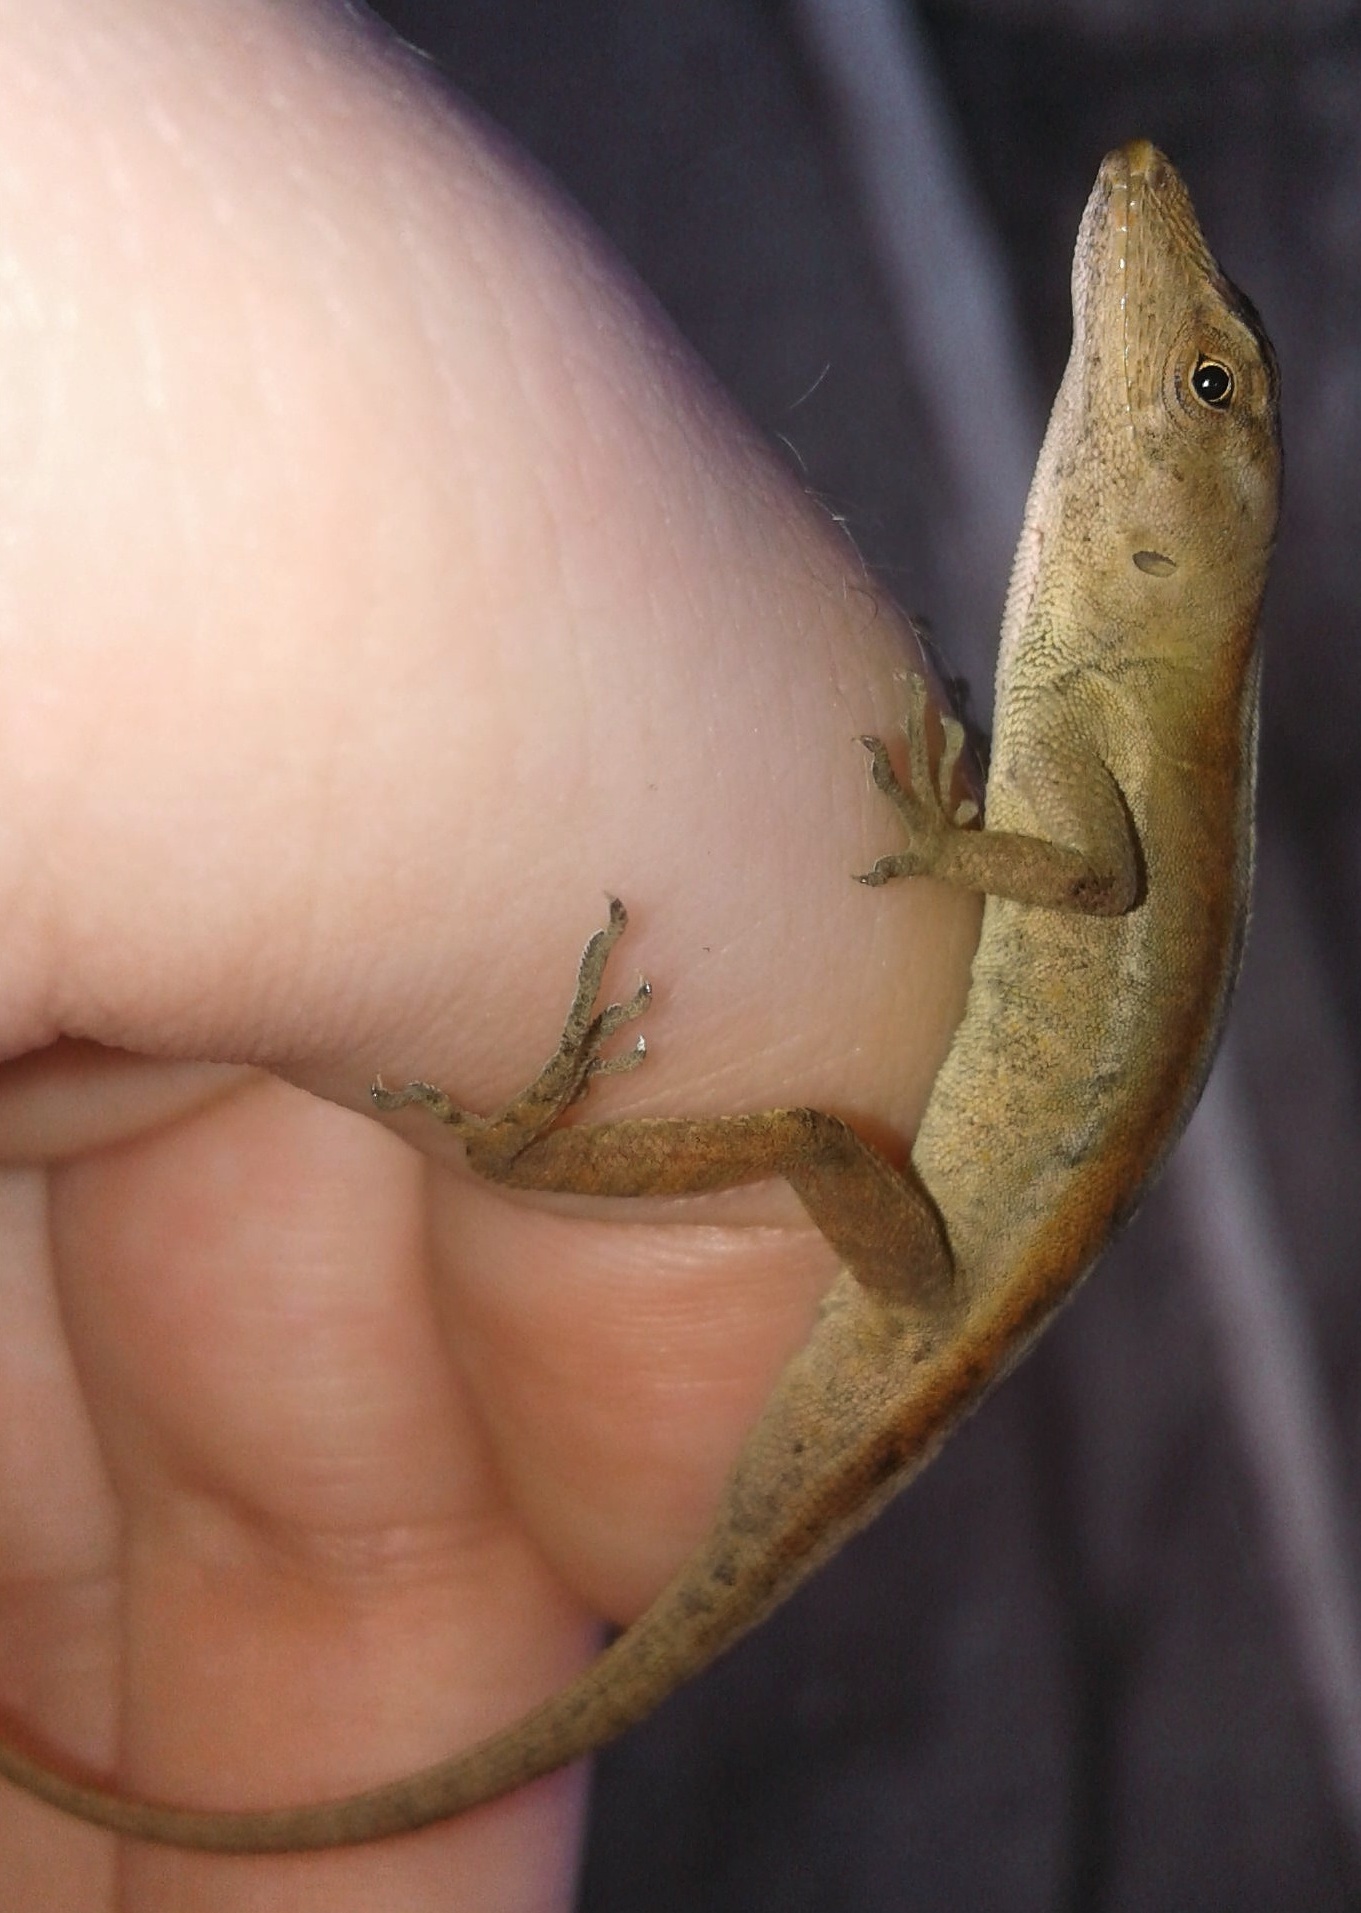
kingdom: Animalia
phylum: Chordata
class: Squamata
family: Dactyloidae
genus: Anolis
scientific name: Anolis laeviventris
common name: White anole
